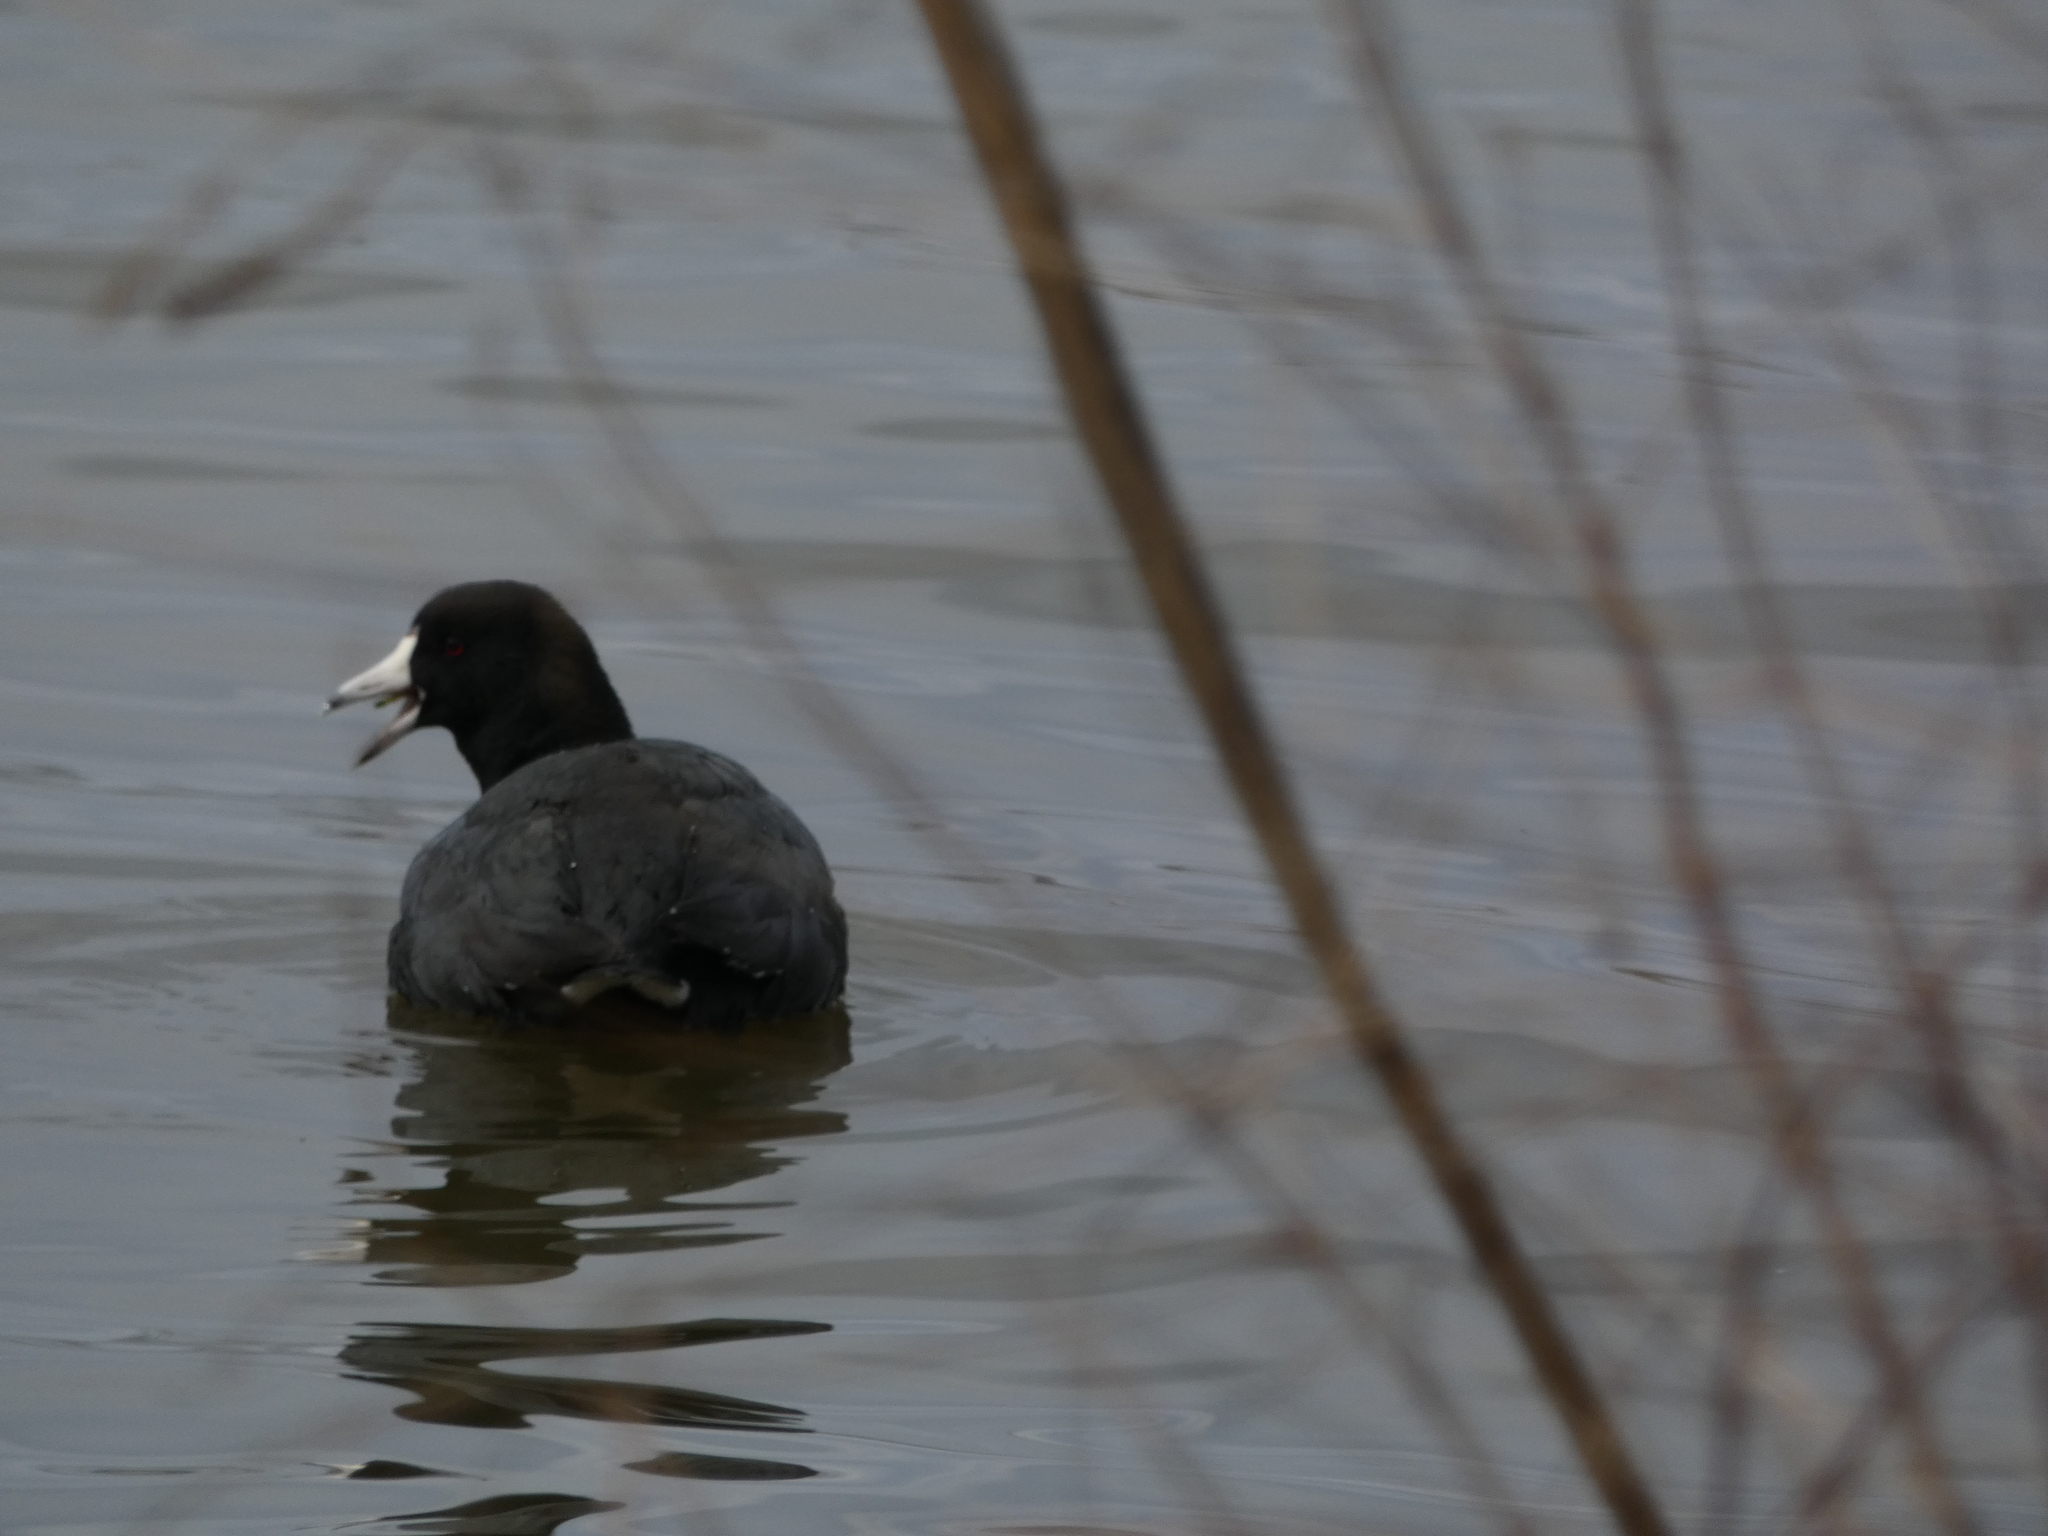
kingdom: Animalia
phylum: Chordata
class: Aves
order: Gruiformes
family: Rallidae
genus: Fulica
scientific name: Fulica americana
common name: American coot
